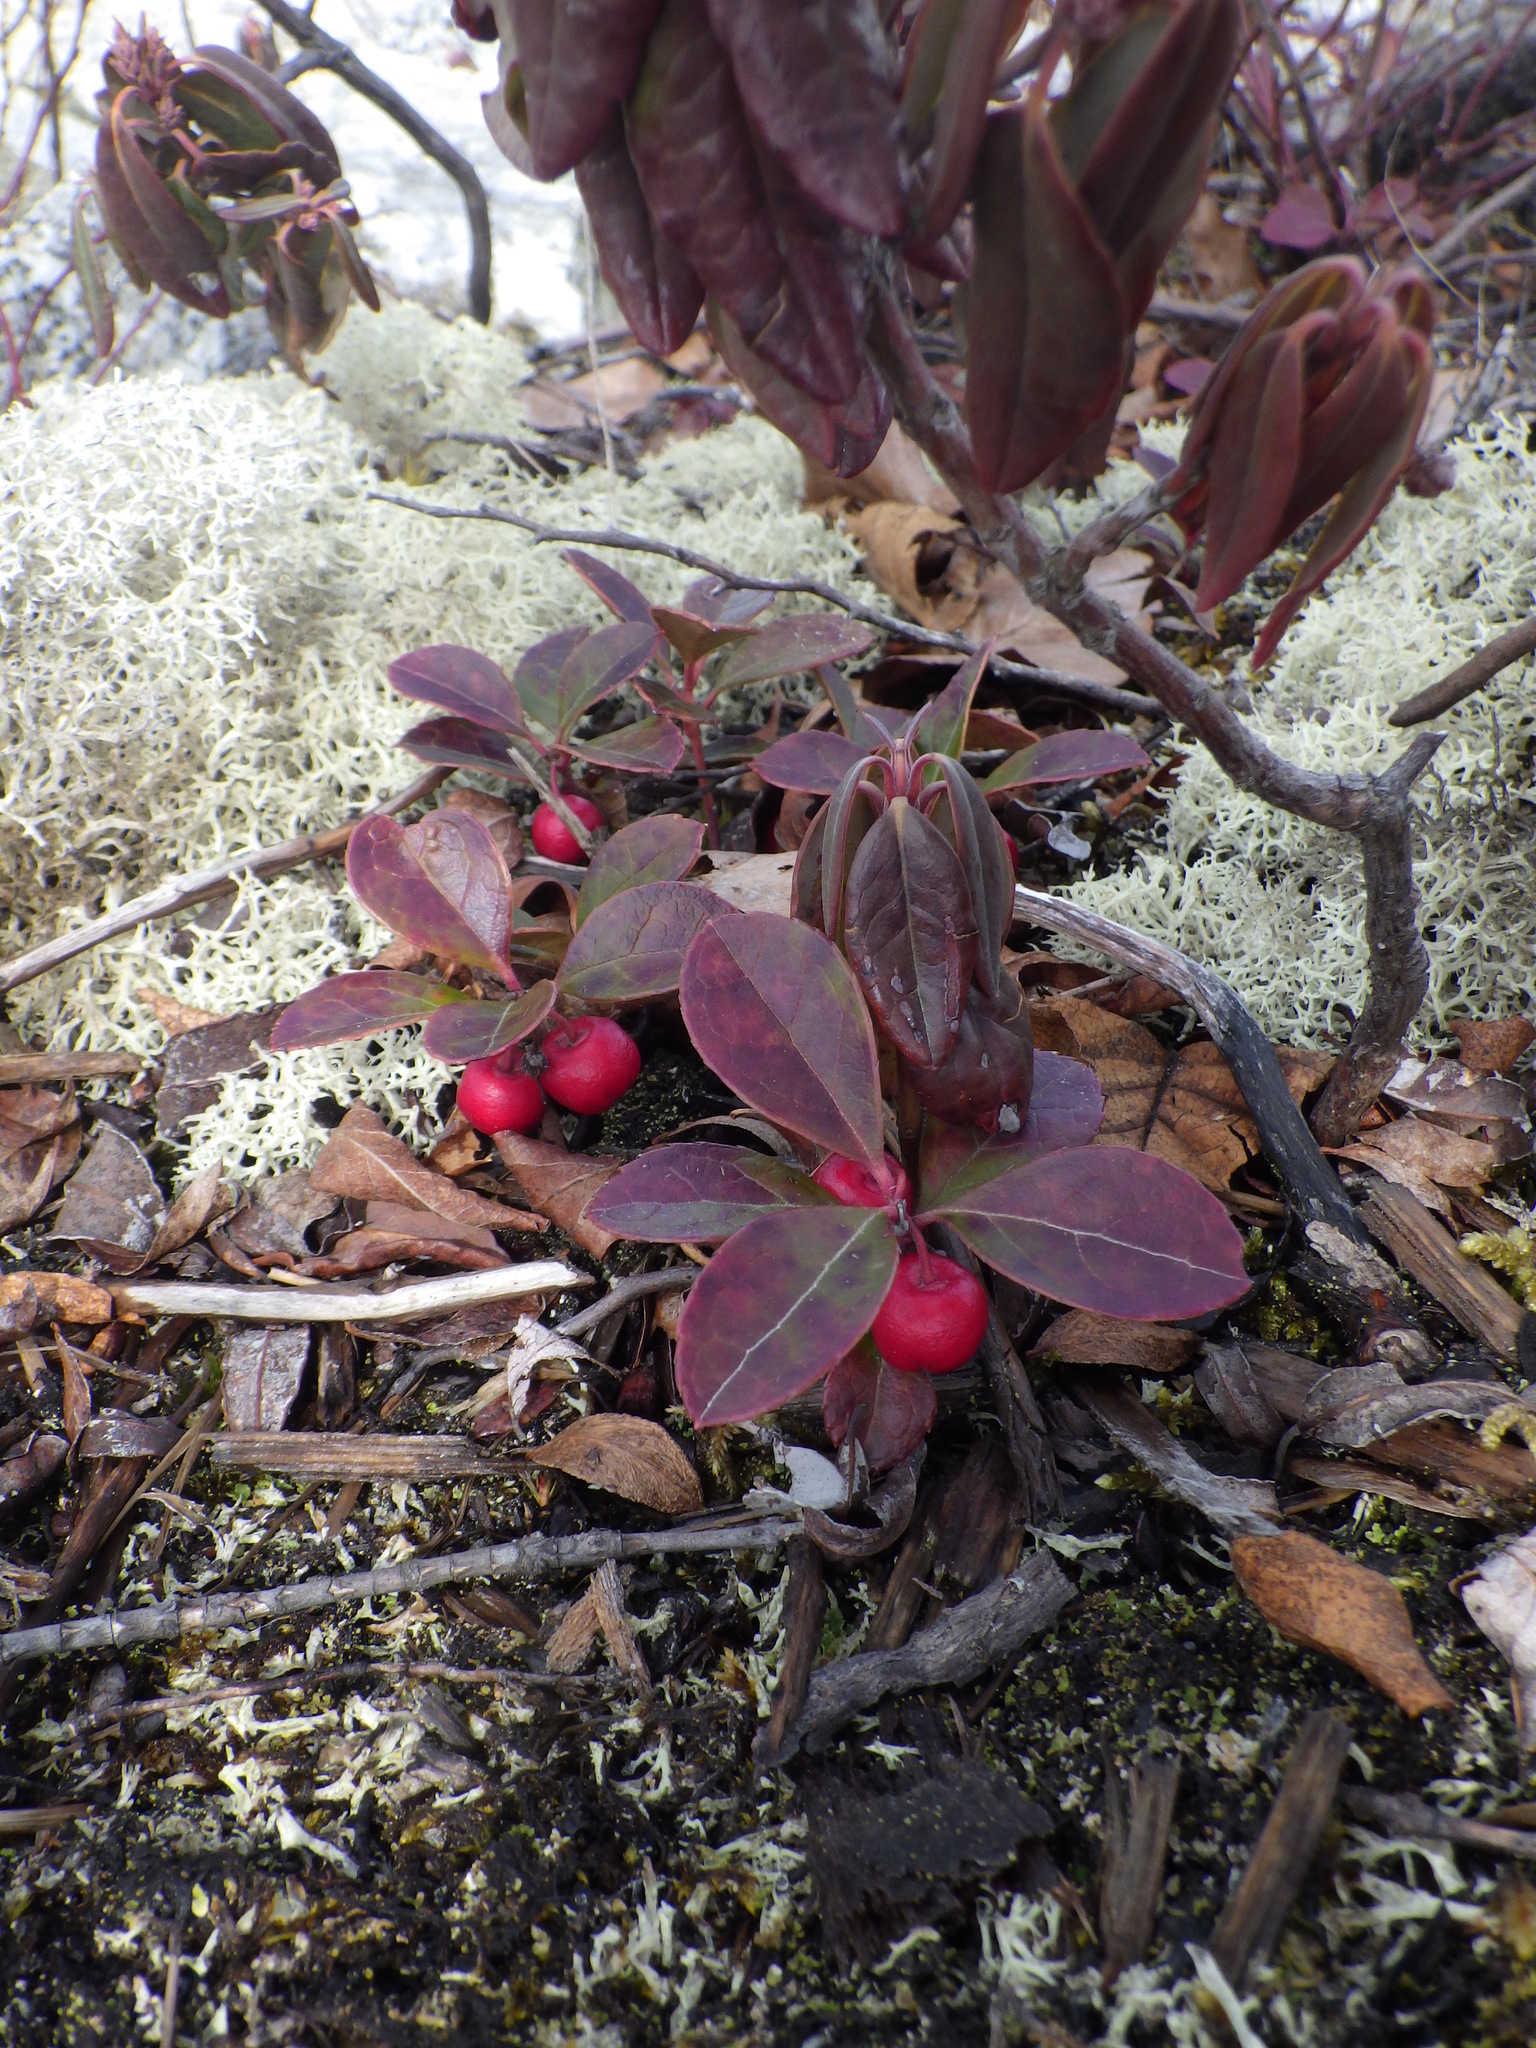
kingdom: Plantae
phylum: Tracheophyta
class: Magnoliopsida
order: Ericales
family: Ericaceae
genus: Gaultheria
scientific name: Gaultheria procumbens
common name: Checkerberry
